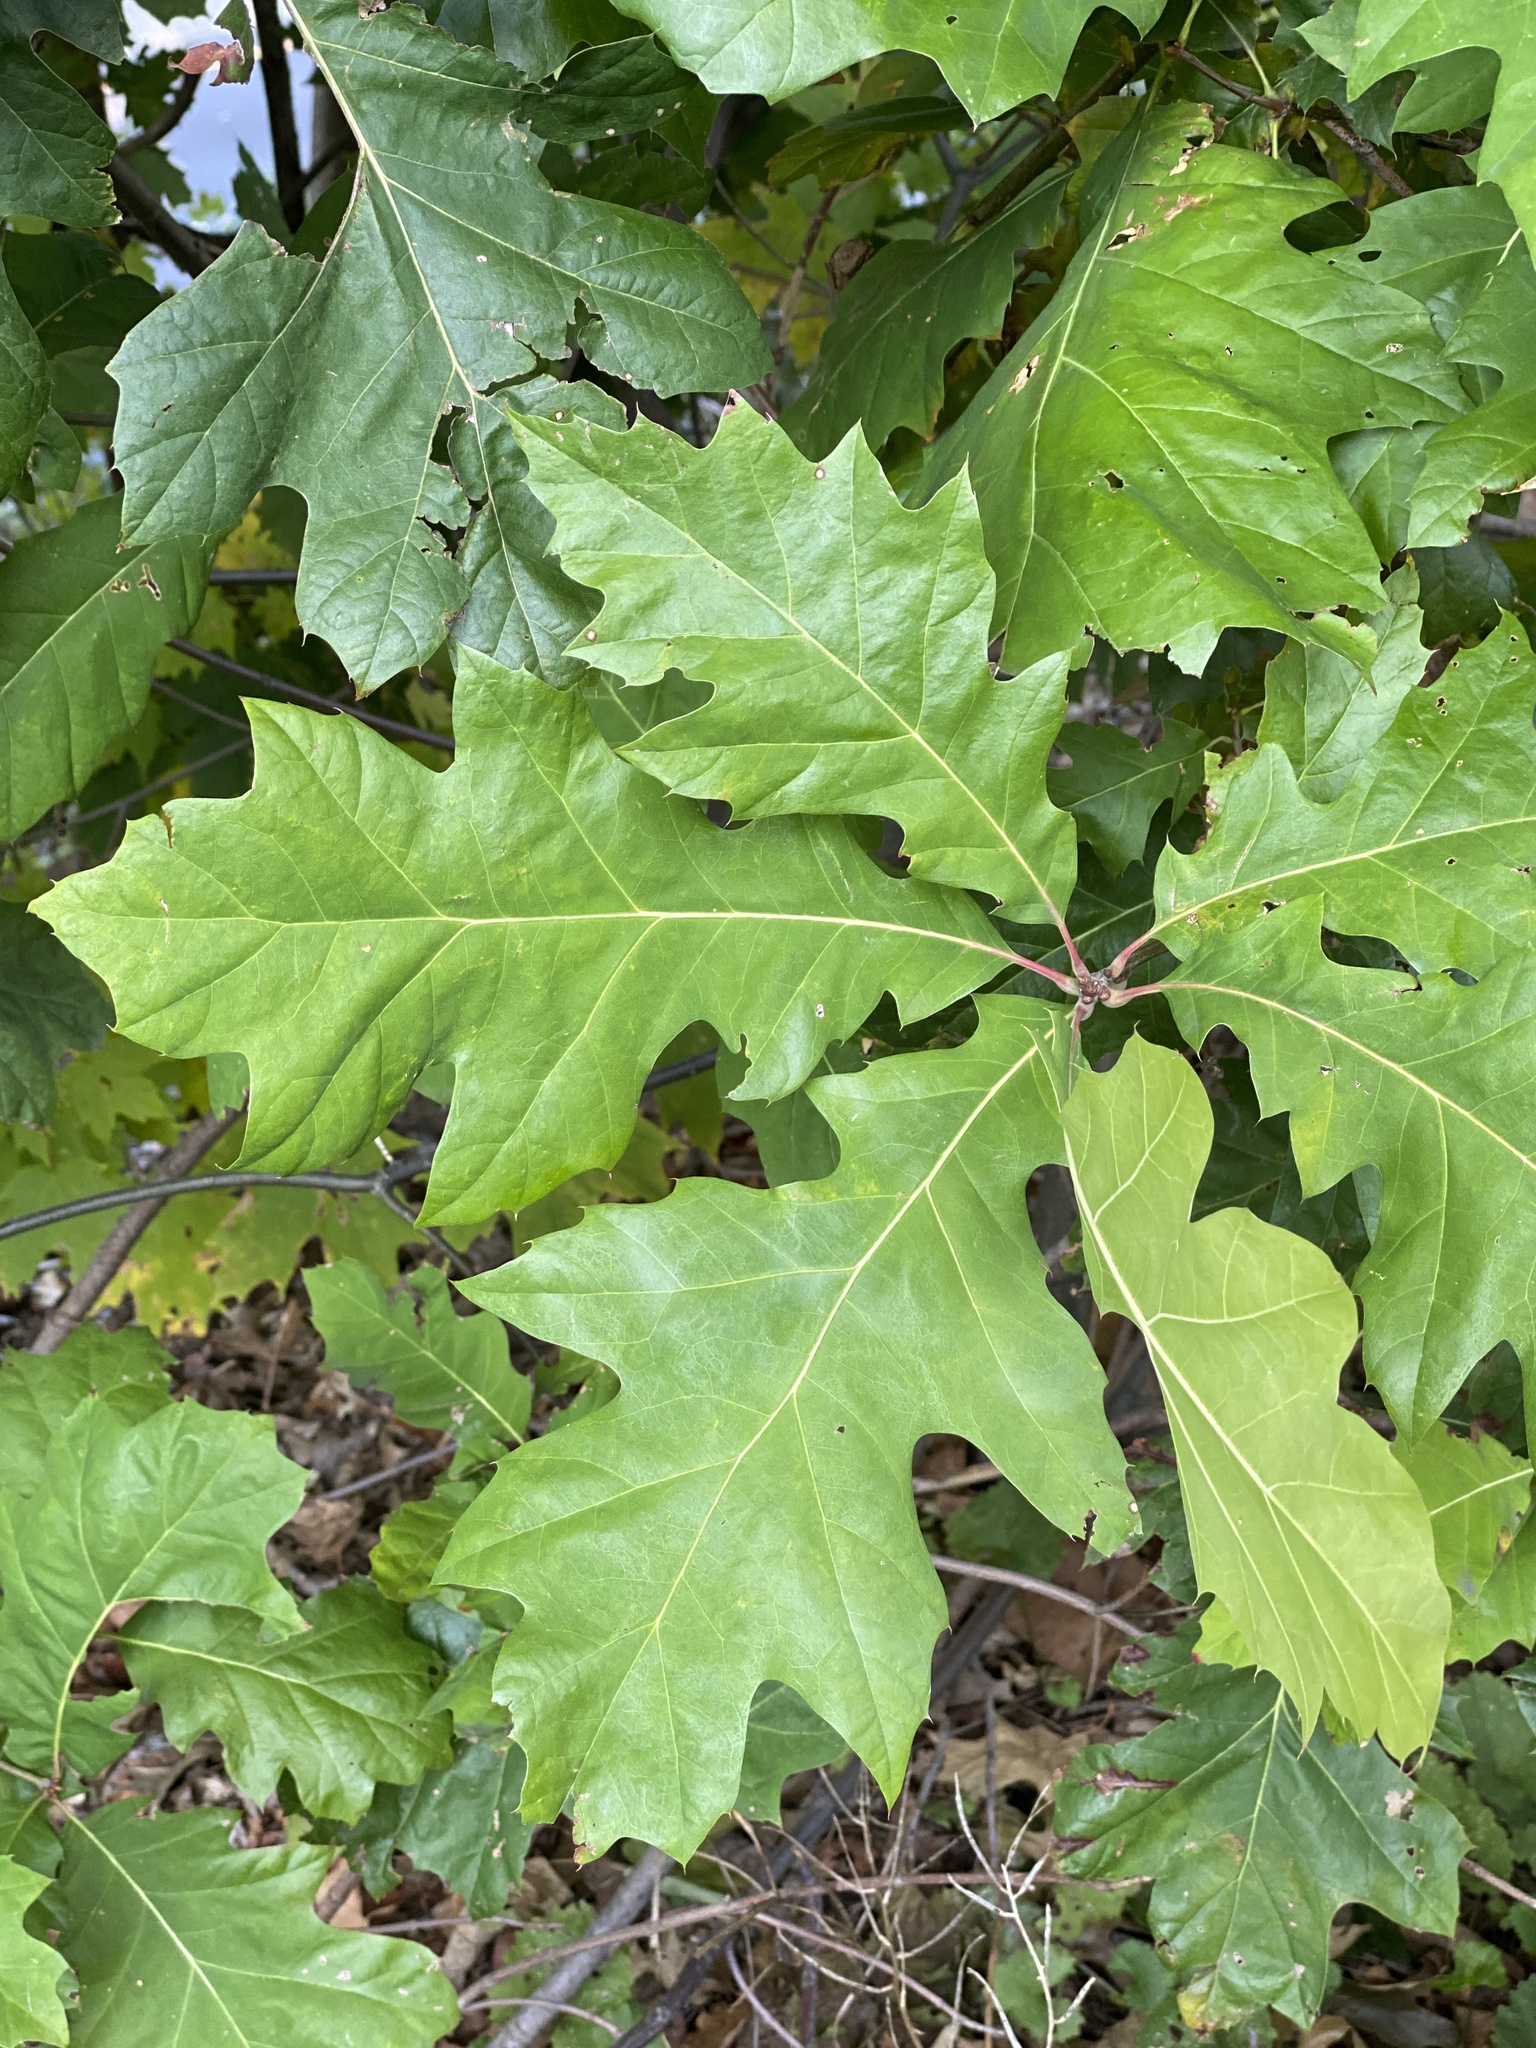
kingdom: Plantae
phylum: Tracheophyta
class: Magnoliopsida
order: Fagales
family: Fagaceae
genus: Quercus
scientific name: Quercus rubra
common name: Red oak
